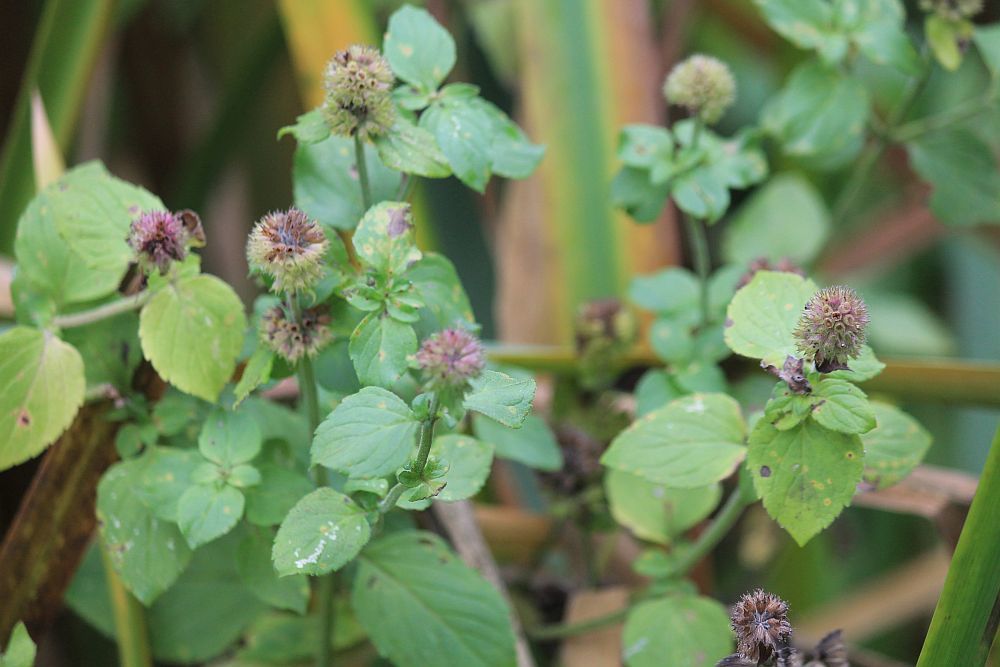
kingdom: Plantae
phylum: Tracheophyta
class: Magnoliopsida
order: Lamiales
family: Lamiaceae
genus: Mentha
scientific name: Mentha aquatica
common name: Water mint
